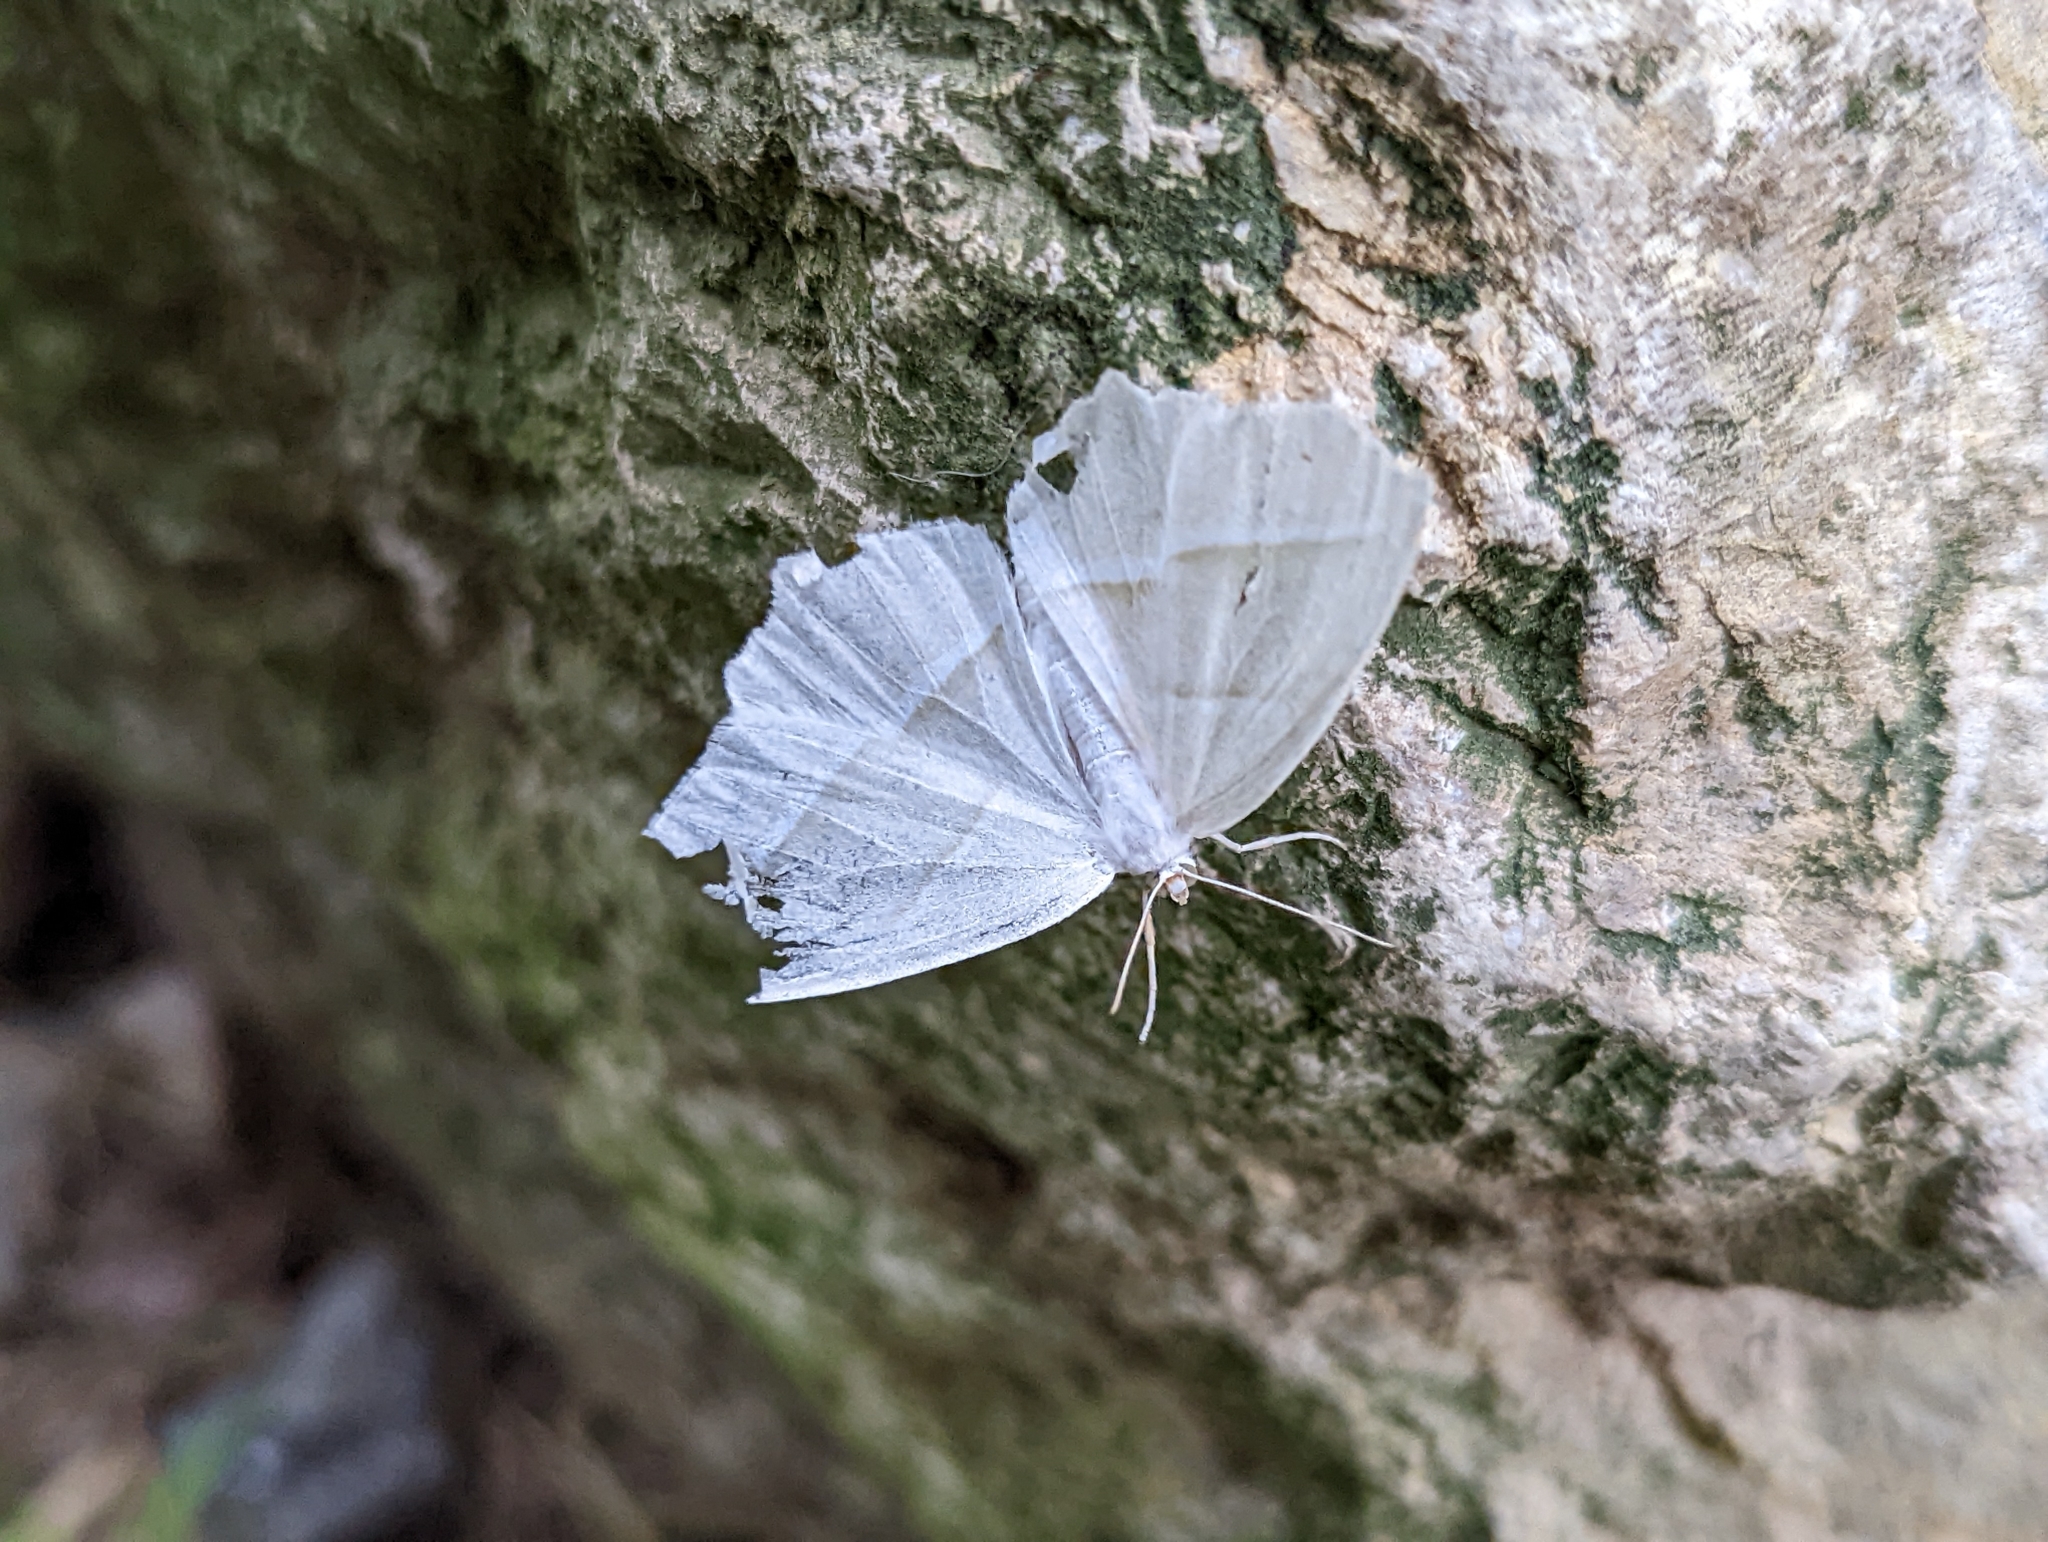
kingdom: Animalia
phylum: Arthropoda
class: Insecta
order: Lepidoptera
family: Geometridae
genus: Campaea
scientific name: Campaea perlata
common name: Fringed looper
